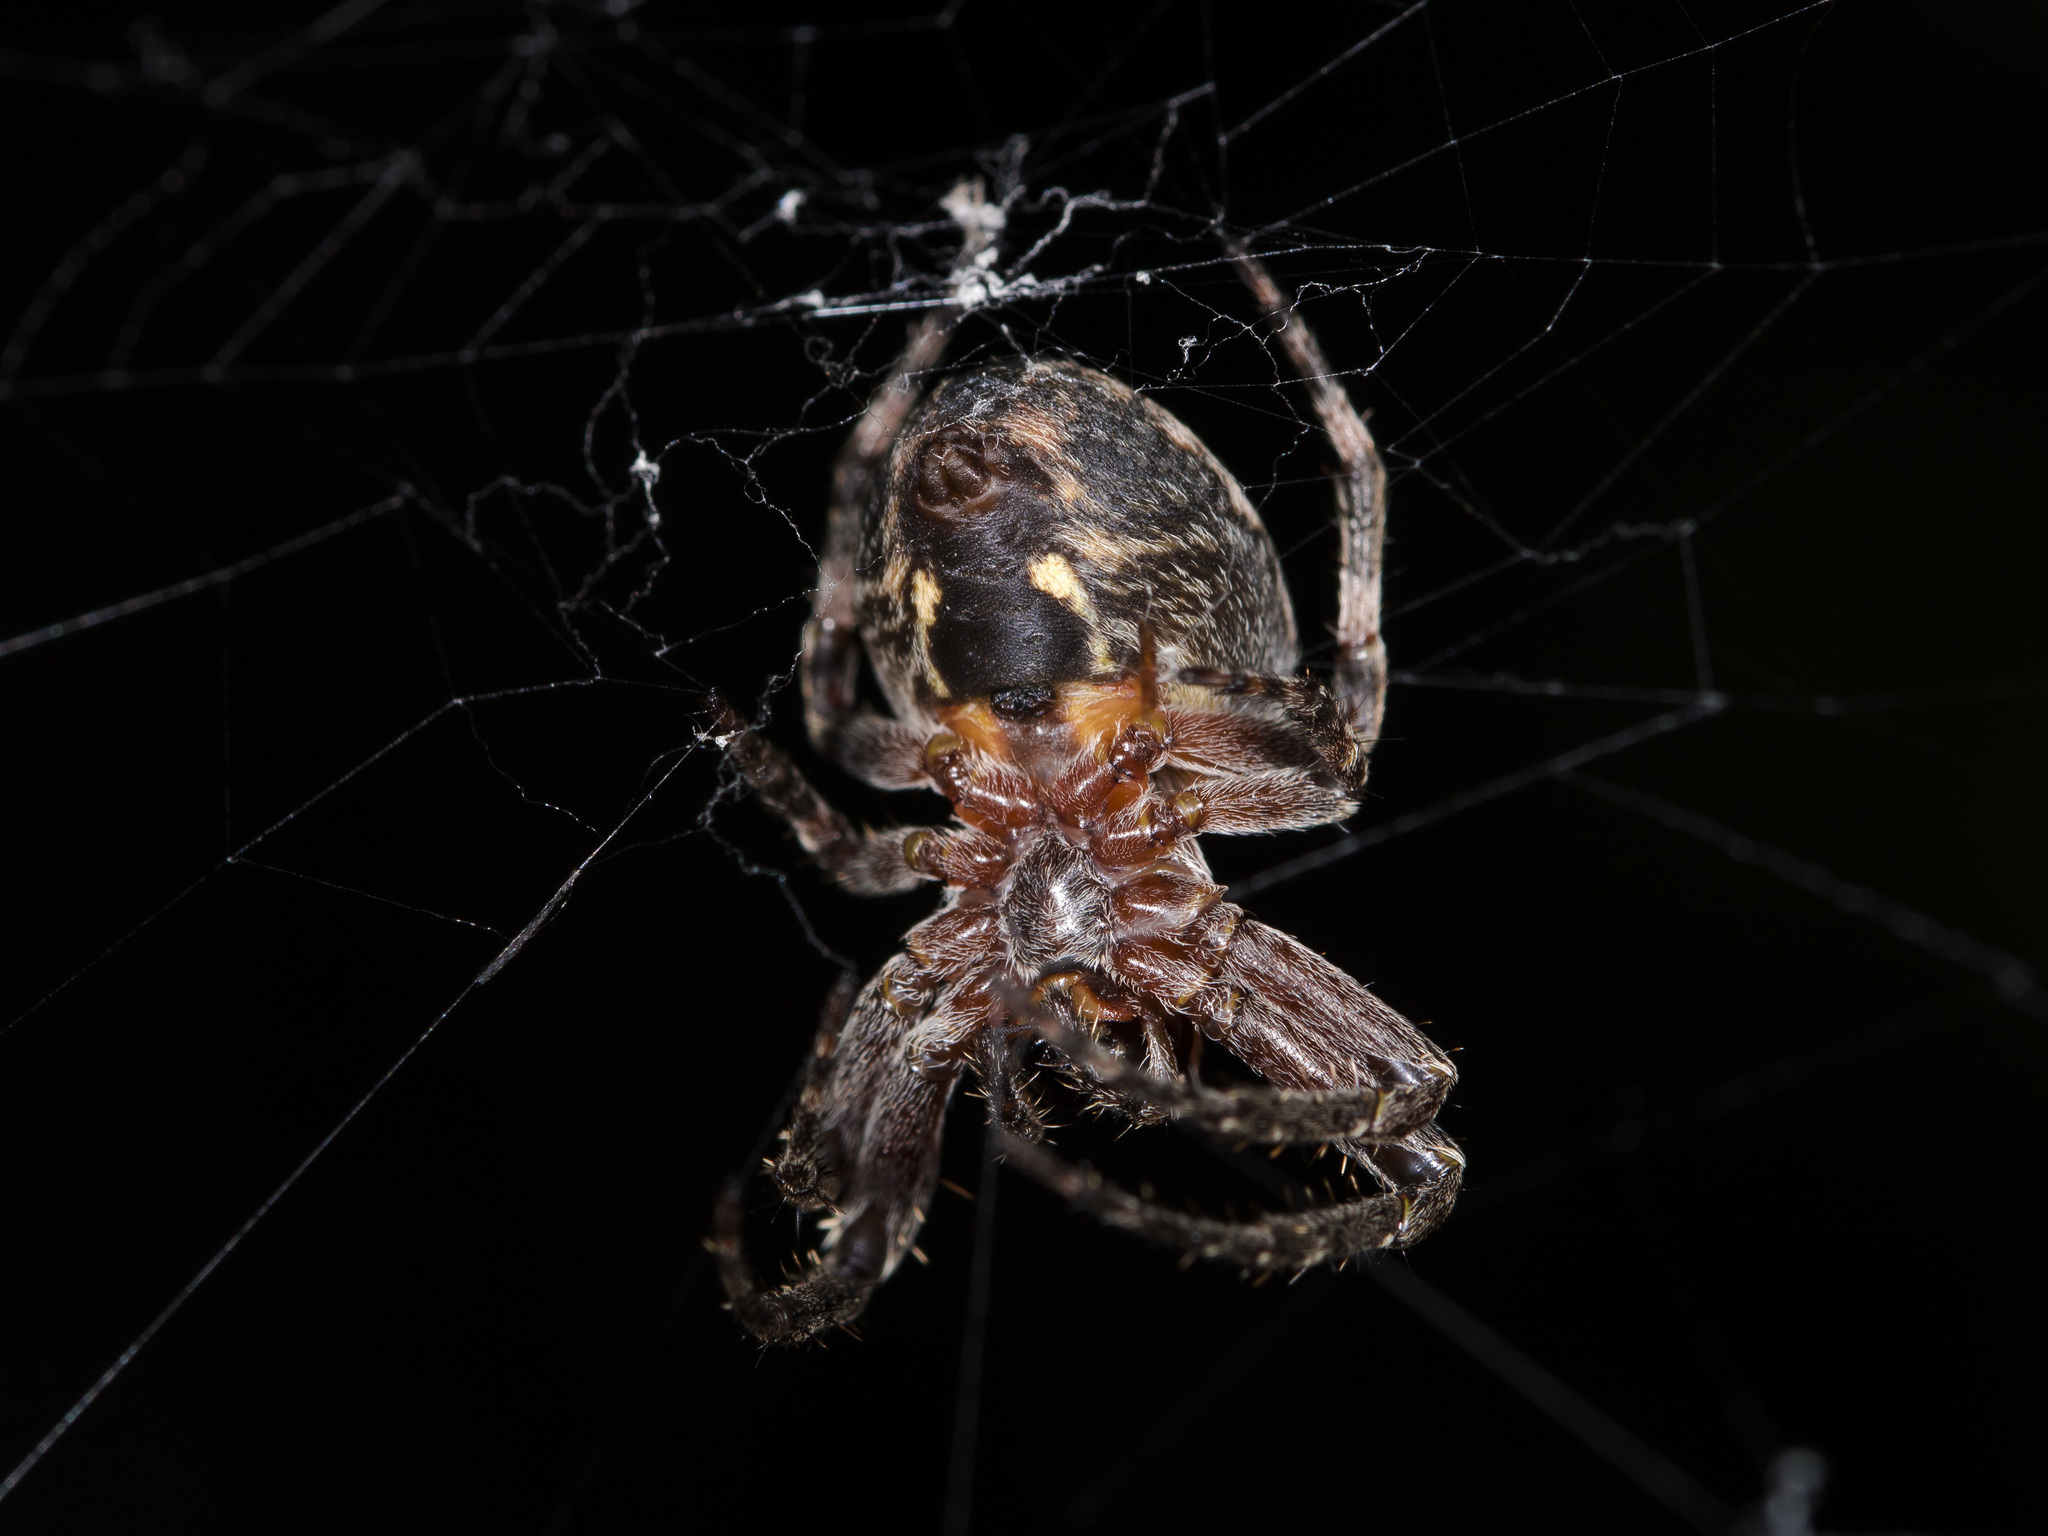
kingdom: Animalia
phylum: Arthropoda
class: Arachnida
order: Araneae
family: Araneidae
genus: Larinioides
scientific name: Larinioides patagiatus
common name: Ornamental orbweaver
